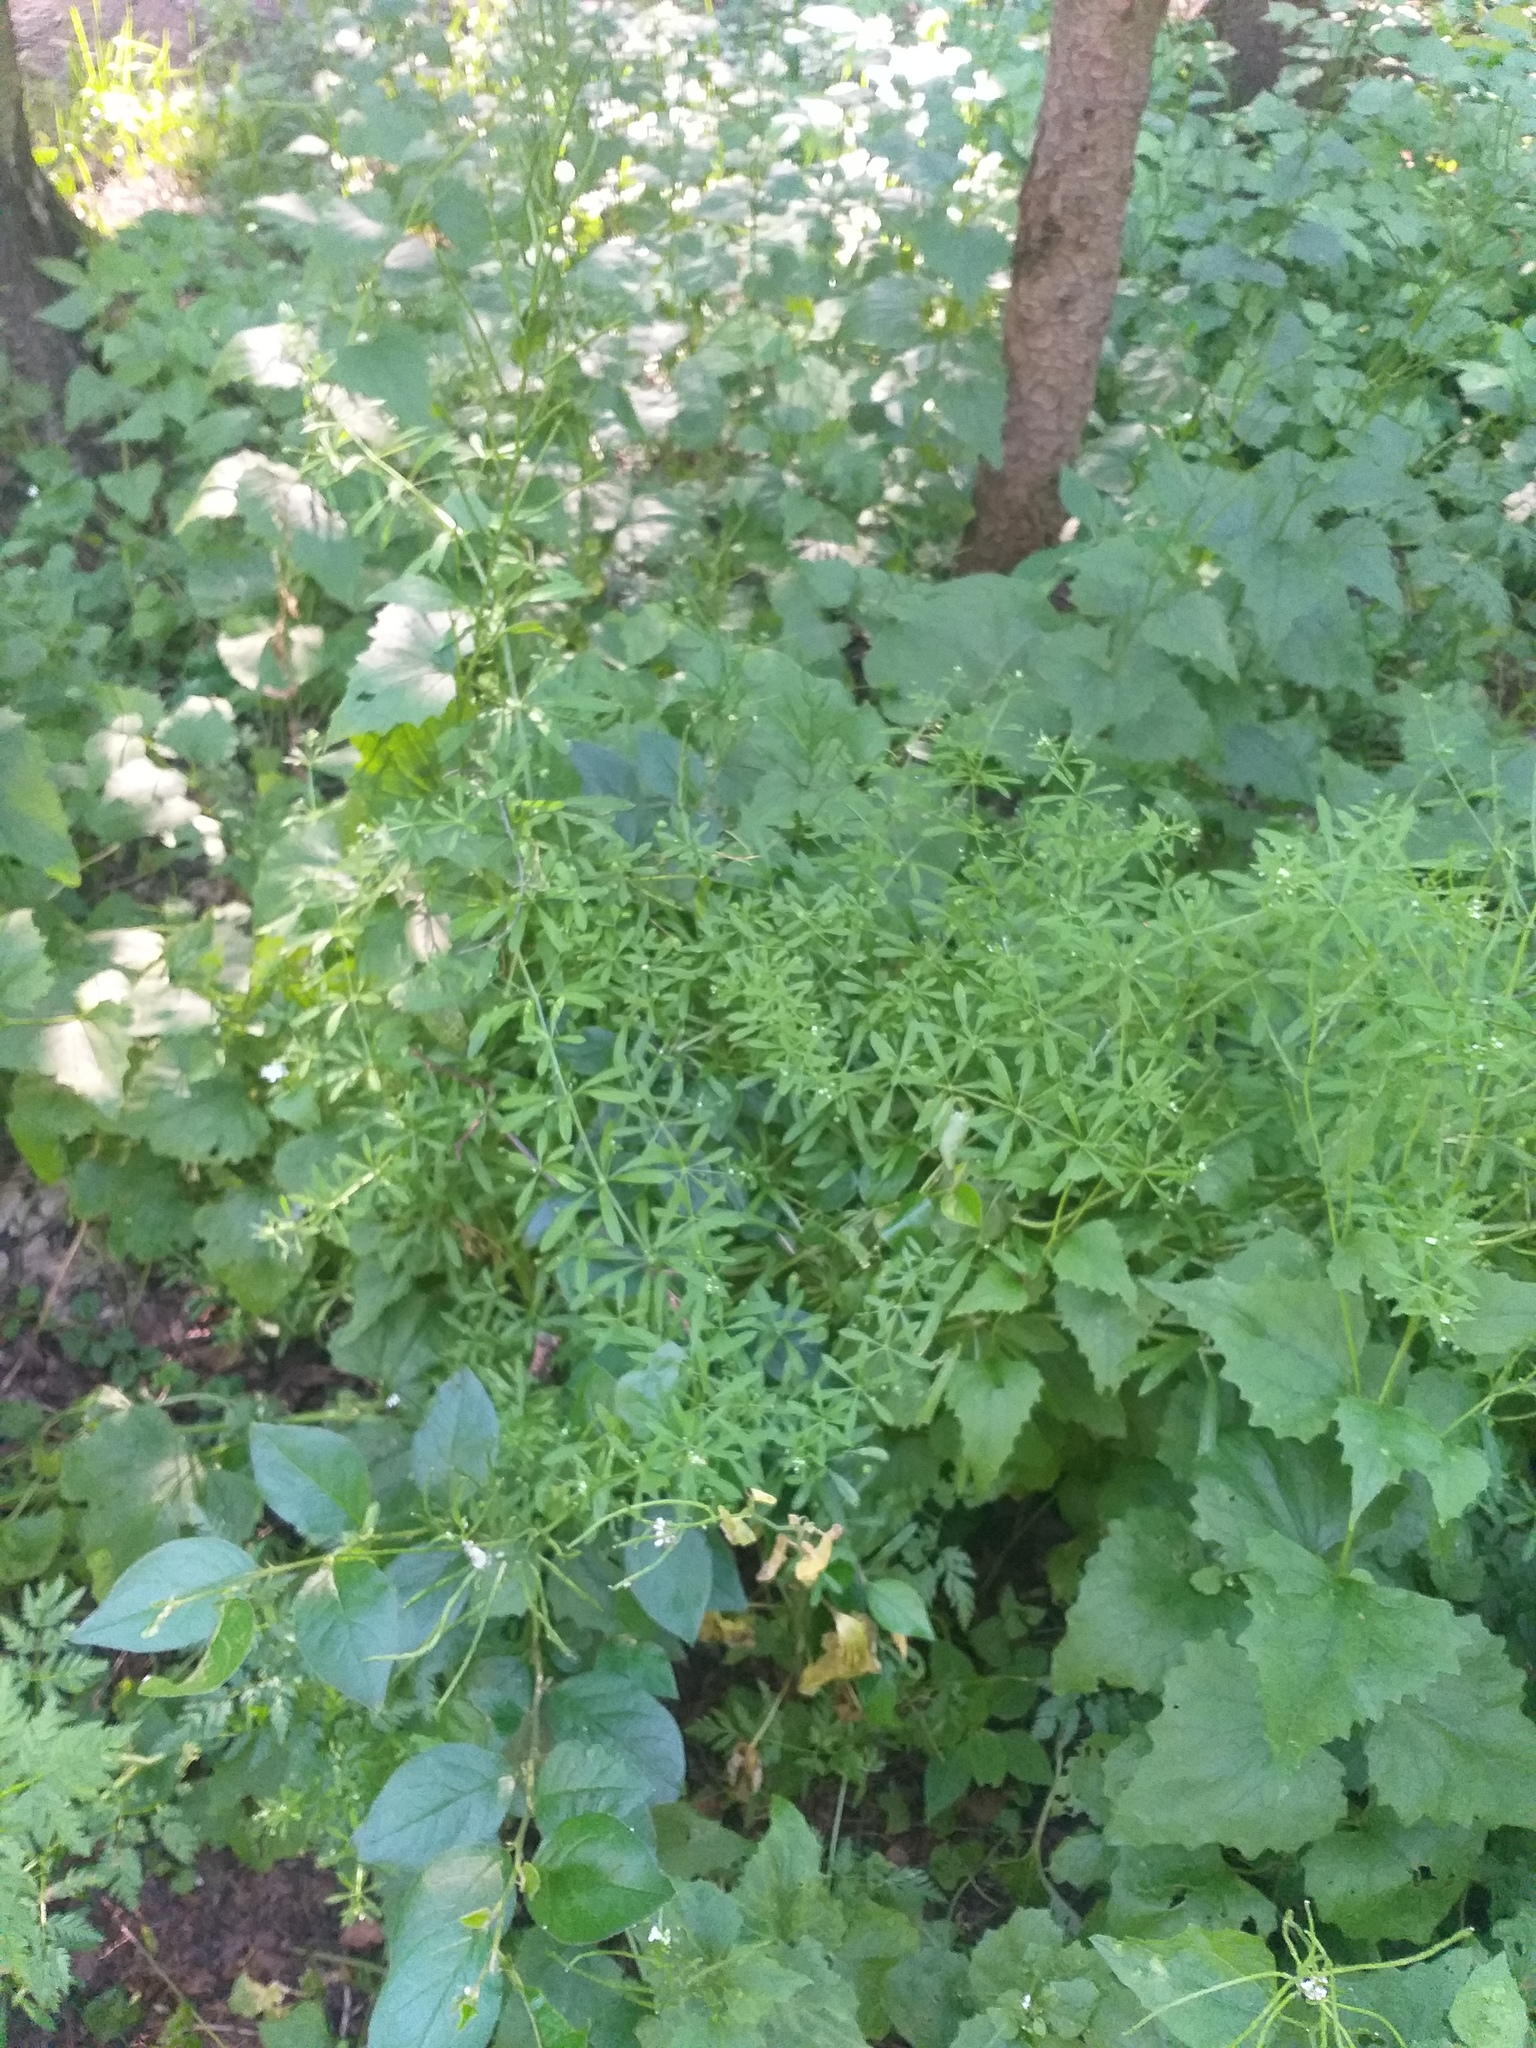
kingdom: Plantae
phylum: Tracheophyta
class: Magnoliopsida
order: Gentianales
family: Rubiaceae
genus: Galium
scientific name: Galium aparine
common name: Cleavers
